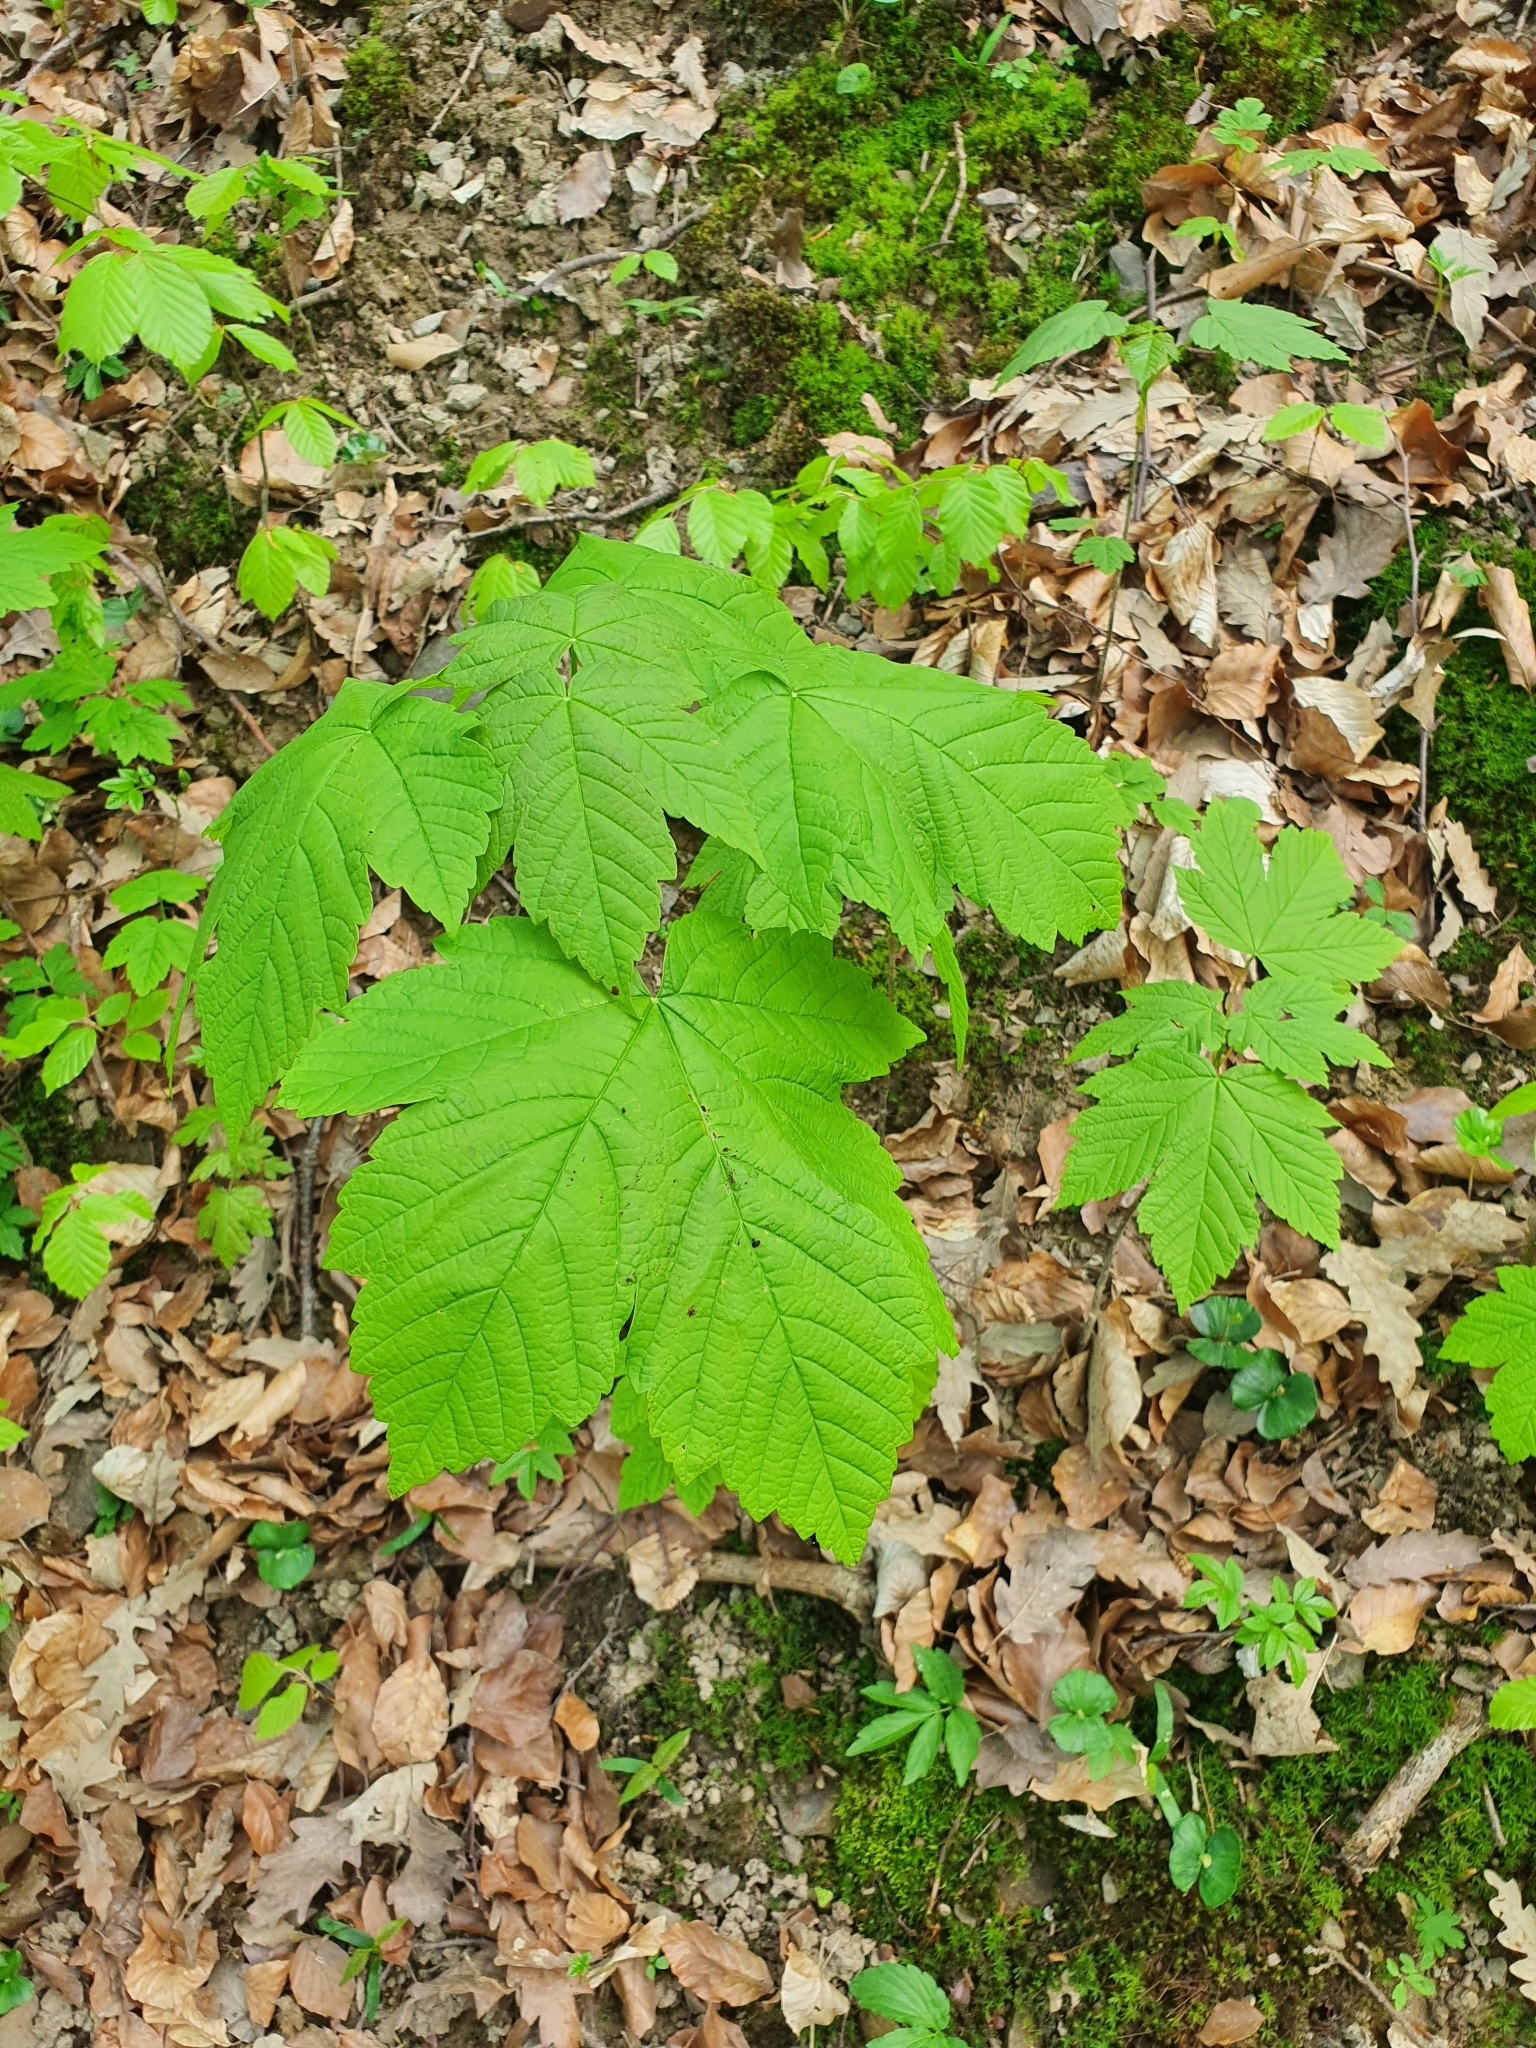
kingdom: Plantae
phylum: Tracheophyta
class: Magnoliopsida
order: Sapindales
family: Sapindaceae
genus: Acer
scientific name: Acer pseudoplatanus
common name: Sycamore
